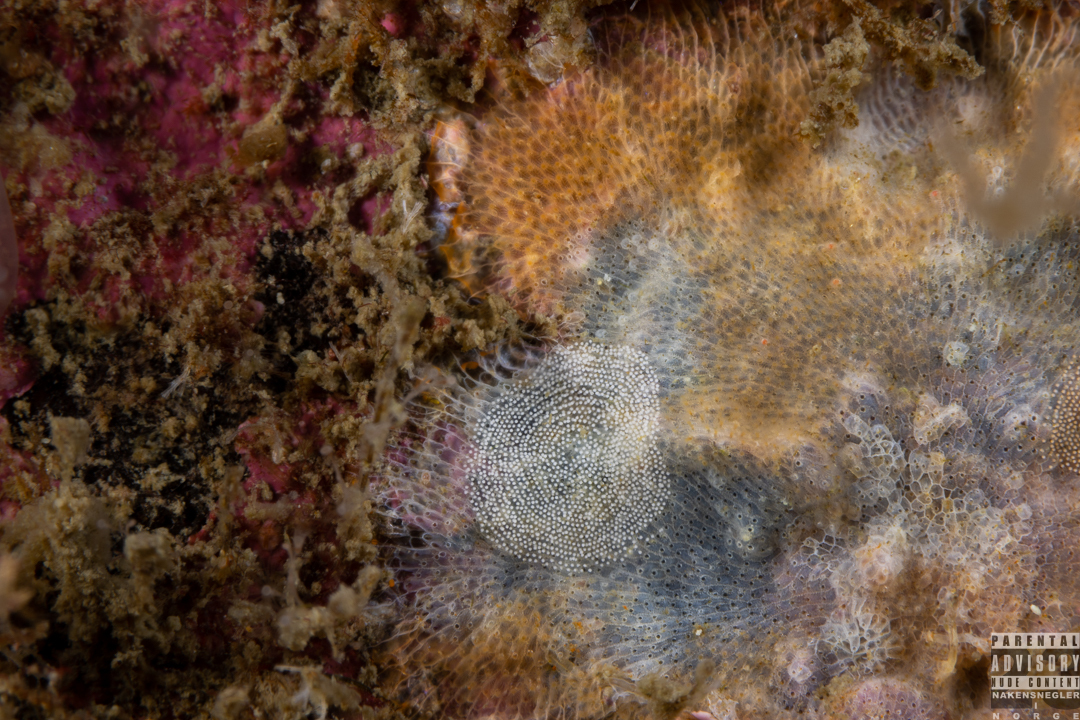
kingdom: Animalia
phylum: Mollusca
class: Gastropoda
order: Nudibranchia
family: Onchidorididae
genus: Idaliadoris
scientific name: Idaliadoris depressa
